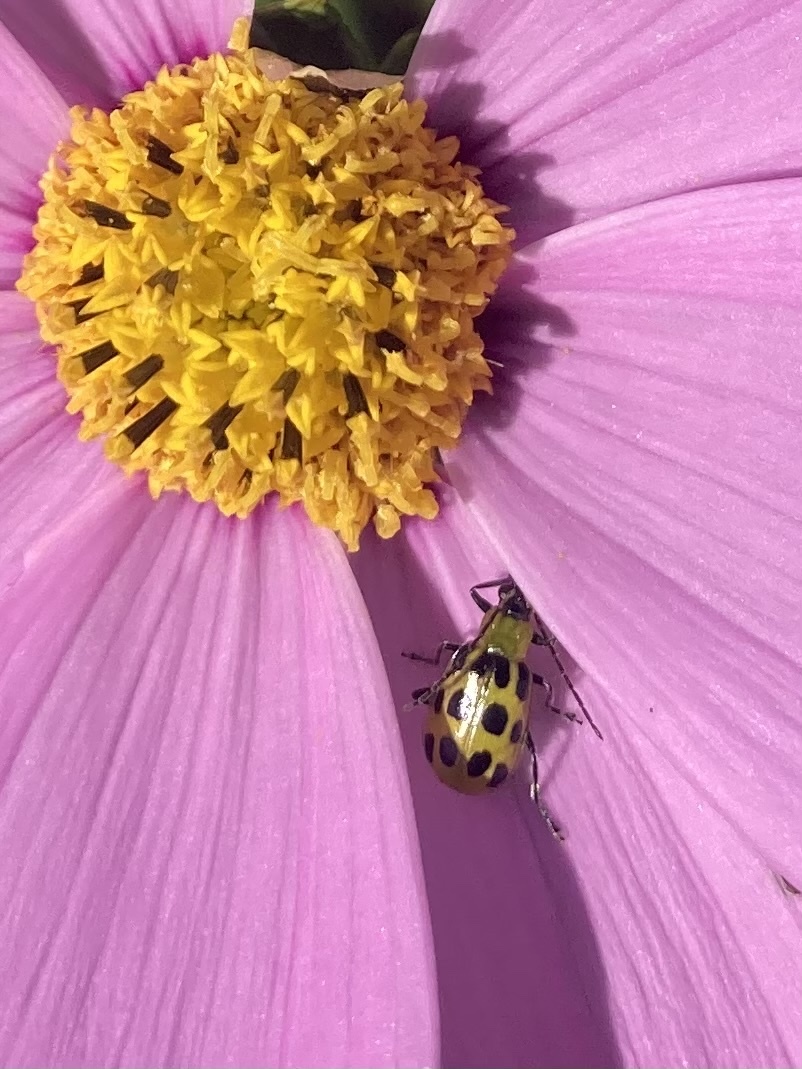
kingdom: Animalia
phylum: Arthropoda
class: Insecta
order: Coleoptera
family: Chrysomelidae
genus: Diabrotica
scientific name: Diabrotica undecimpunctata
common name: Spotted cucumber beetle
